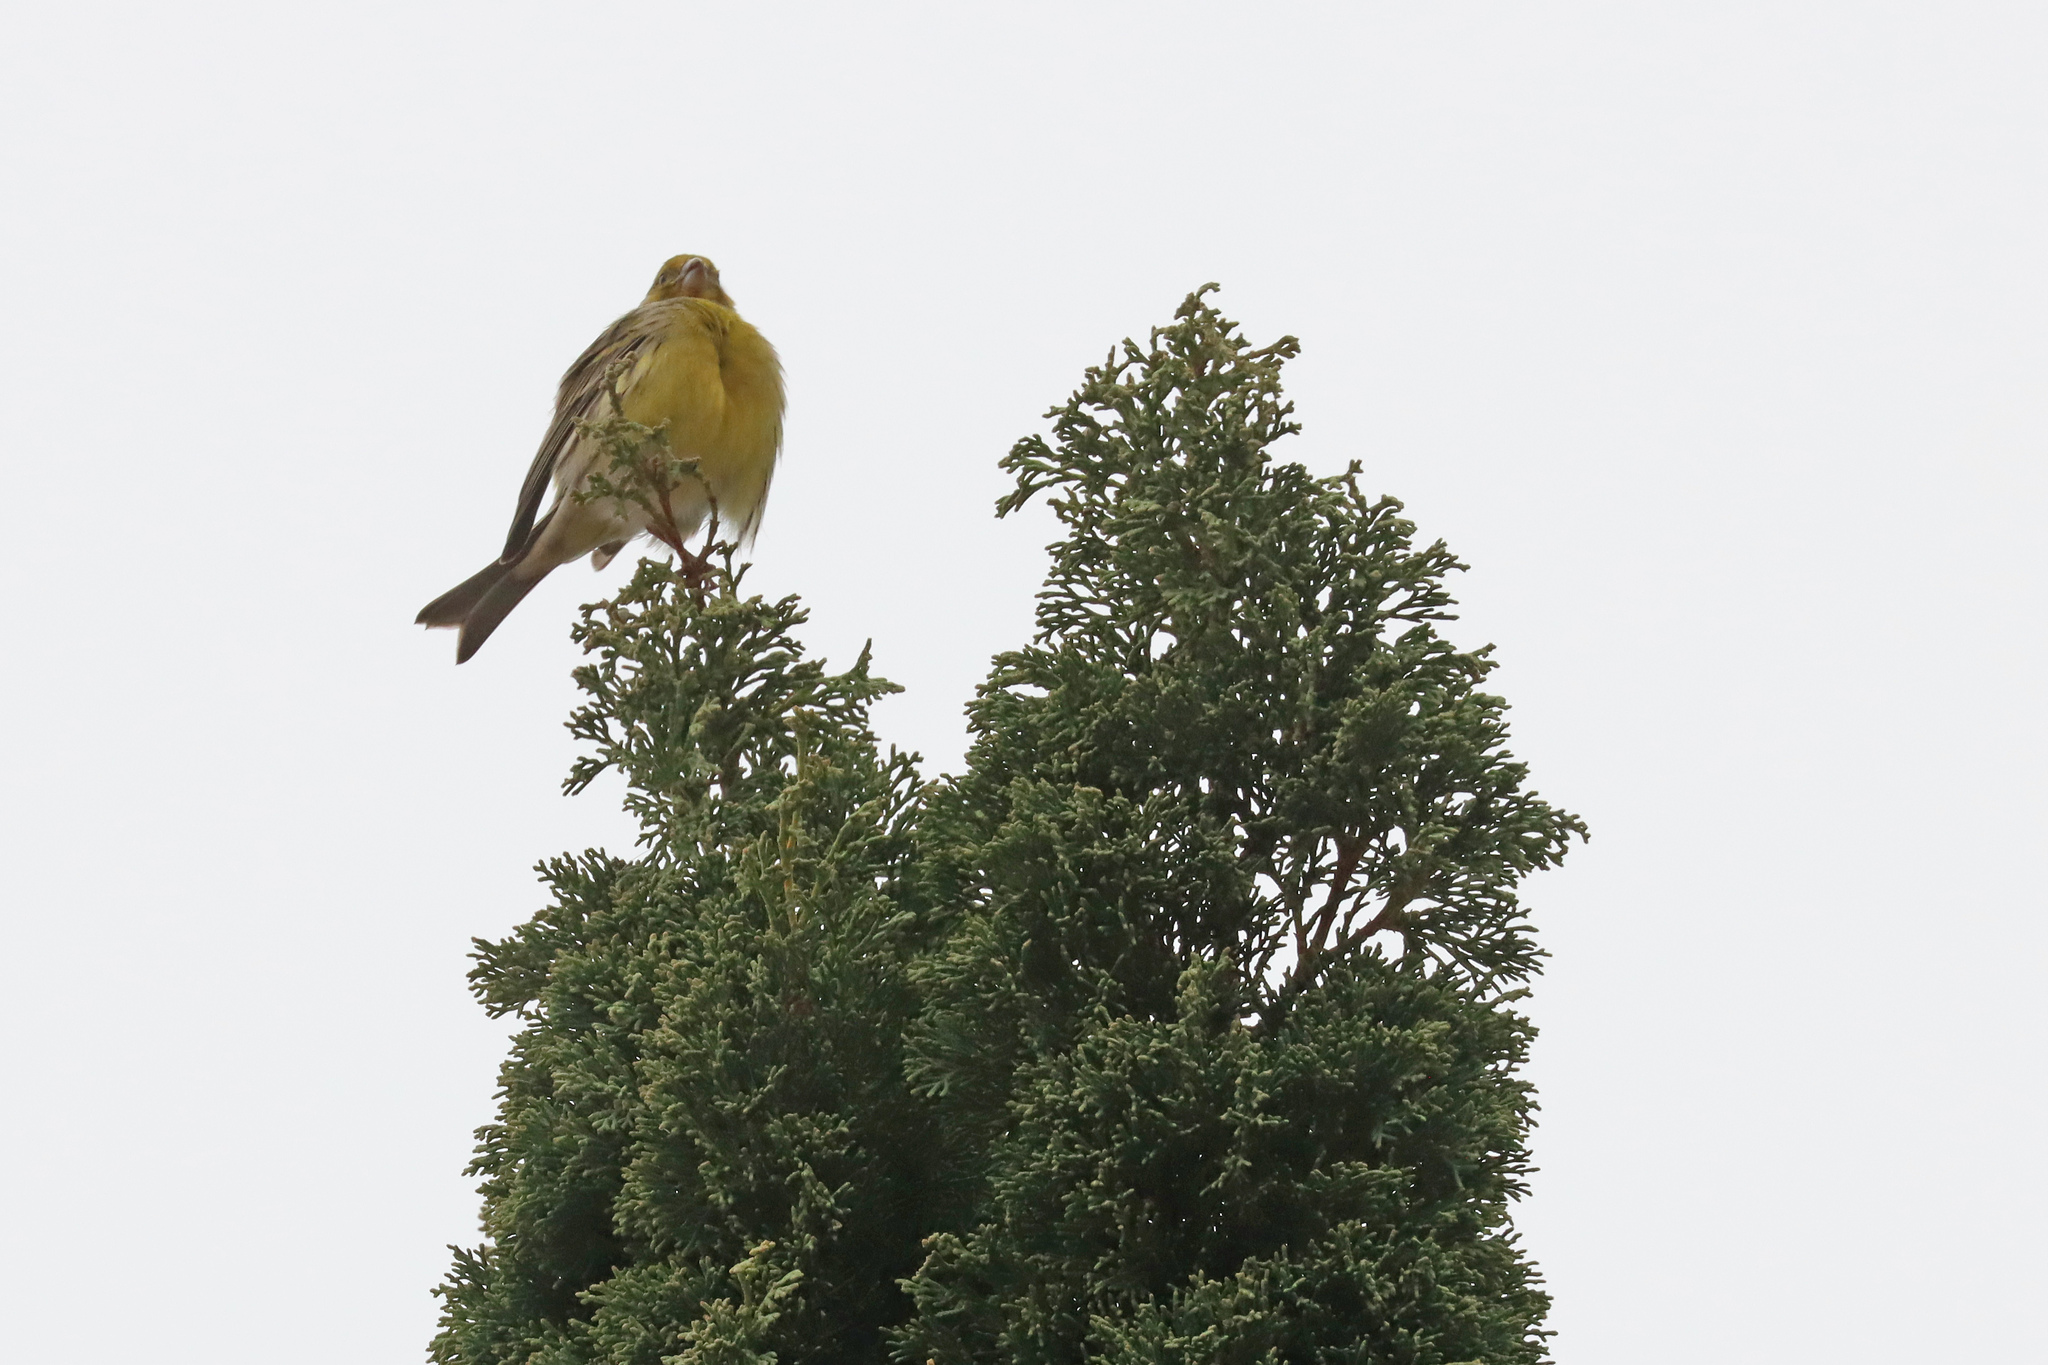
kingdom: Animalia
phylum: Chordata
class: Aves
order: Passeriformes
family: Fringillidae
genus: Serinus
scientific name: Serinus canaria
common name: Atlantic canary
